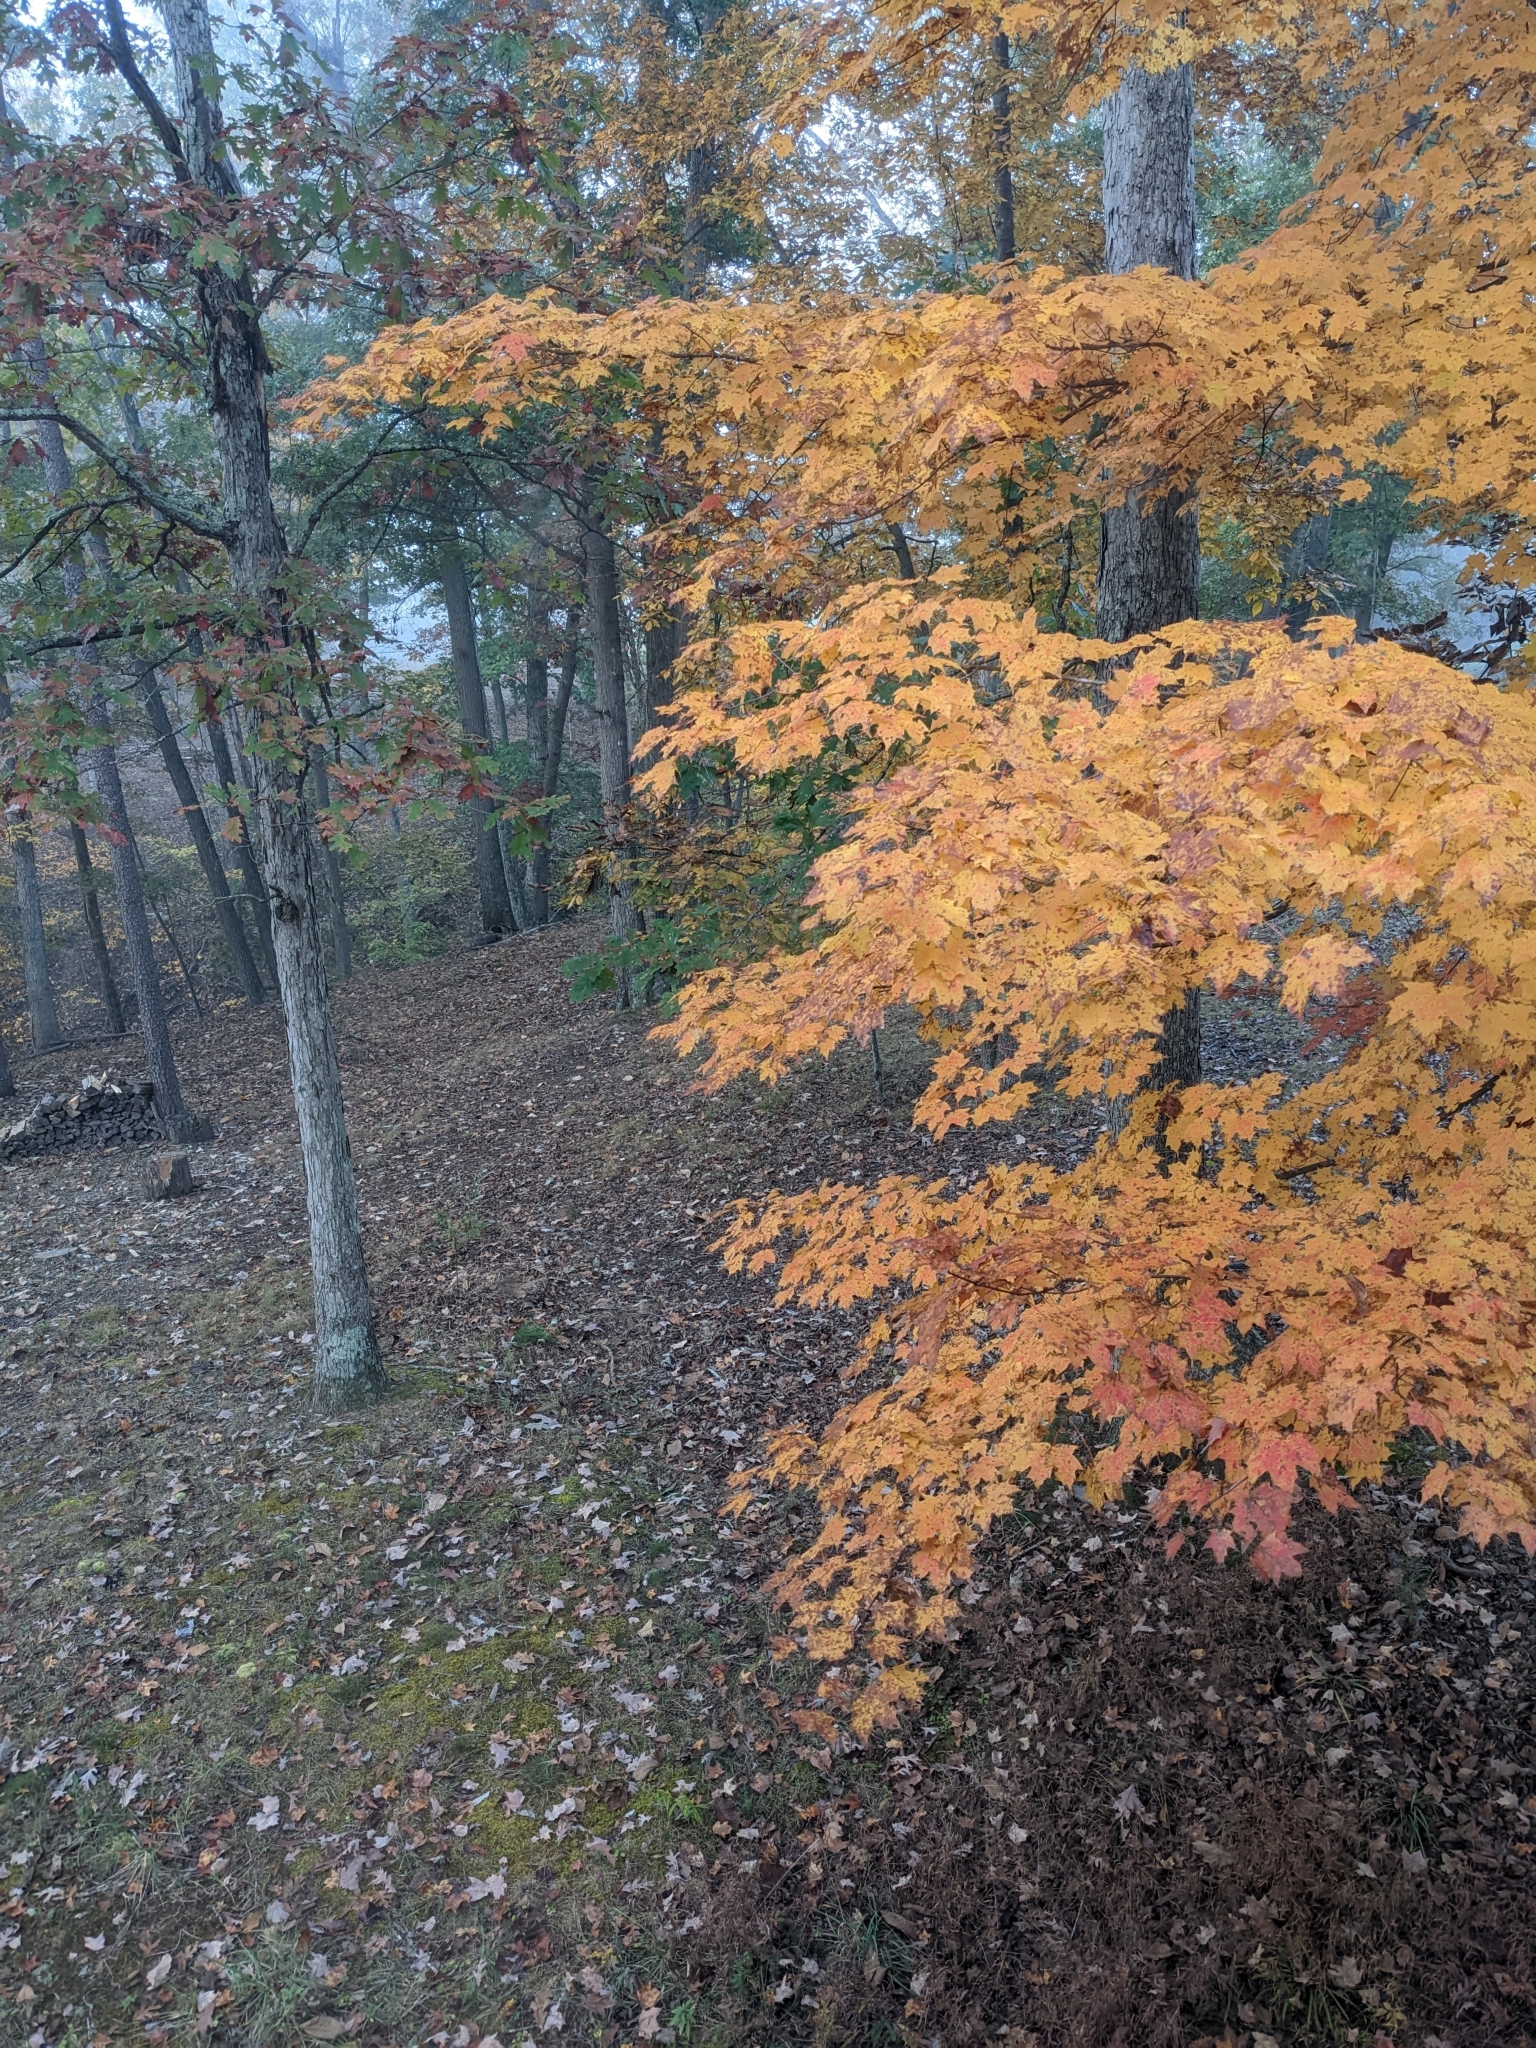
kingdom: Plantae
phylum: Tracheophyta
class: Magnoliopsida
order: Sapindales
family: Sapindaceae
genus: Acer
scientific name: Acer saccharum
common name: Sugar maple
